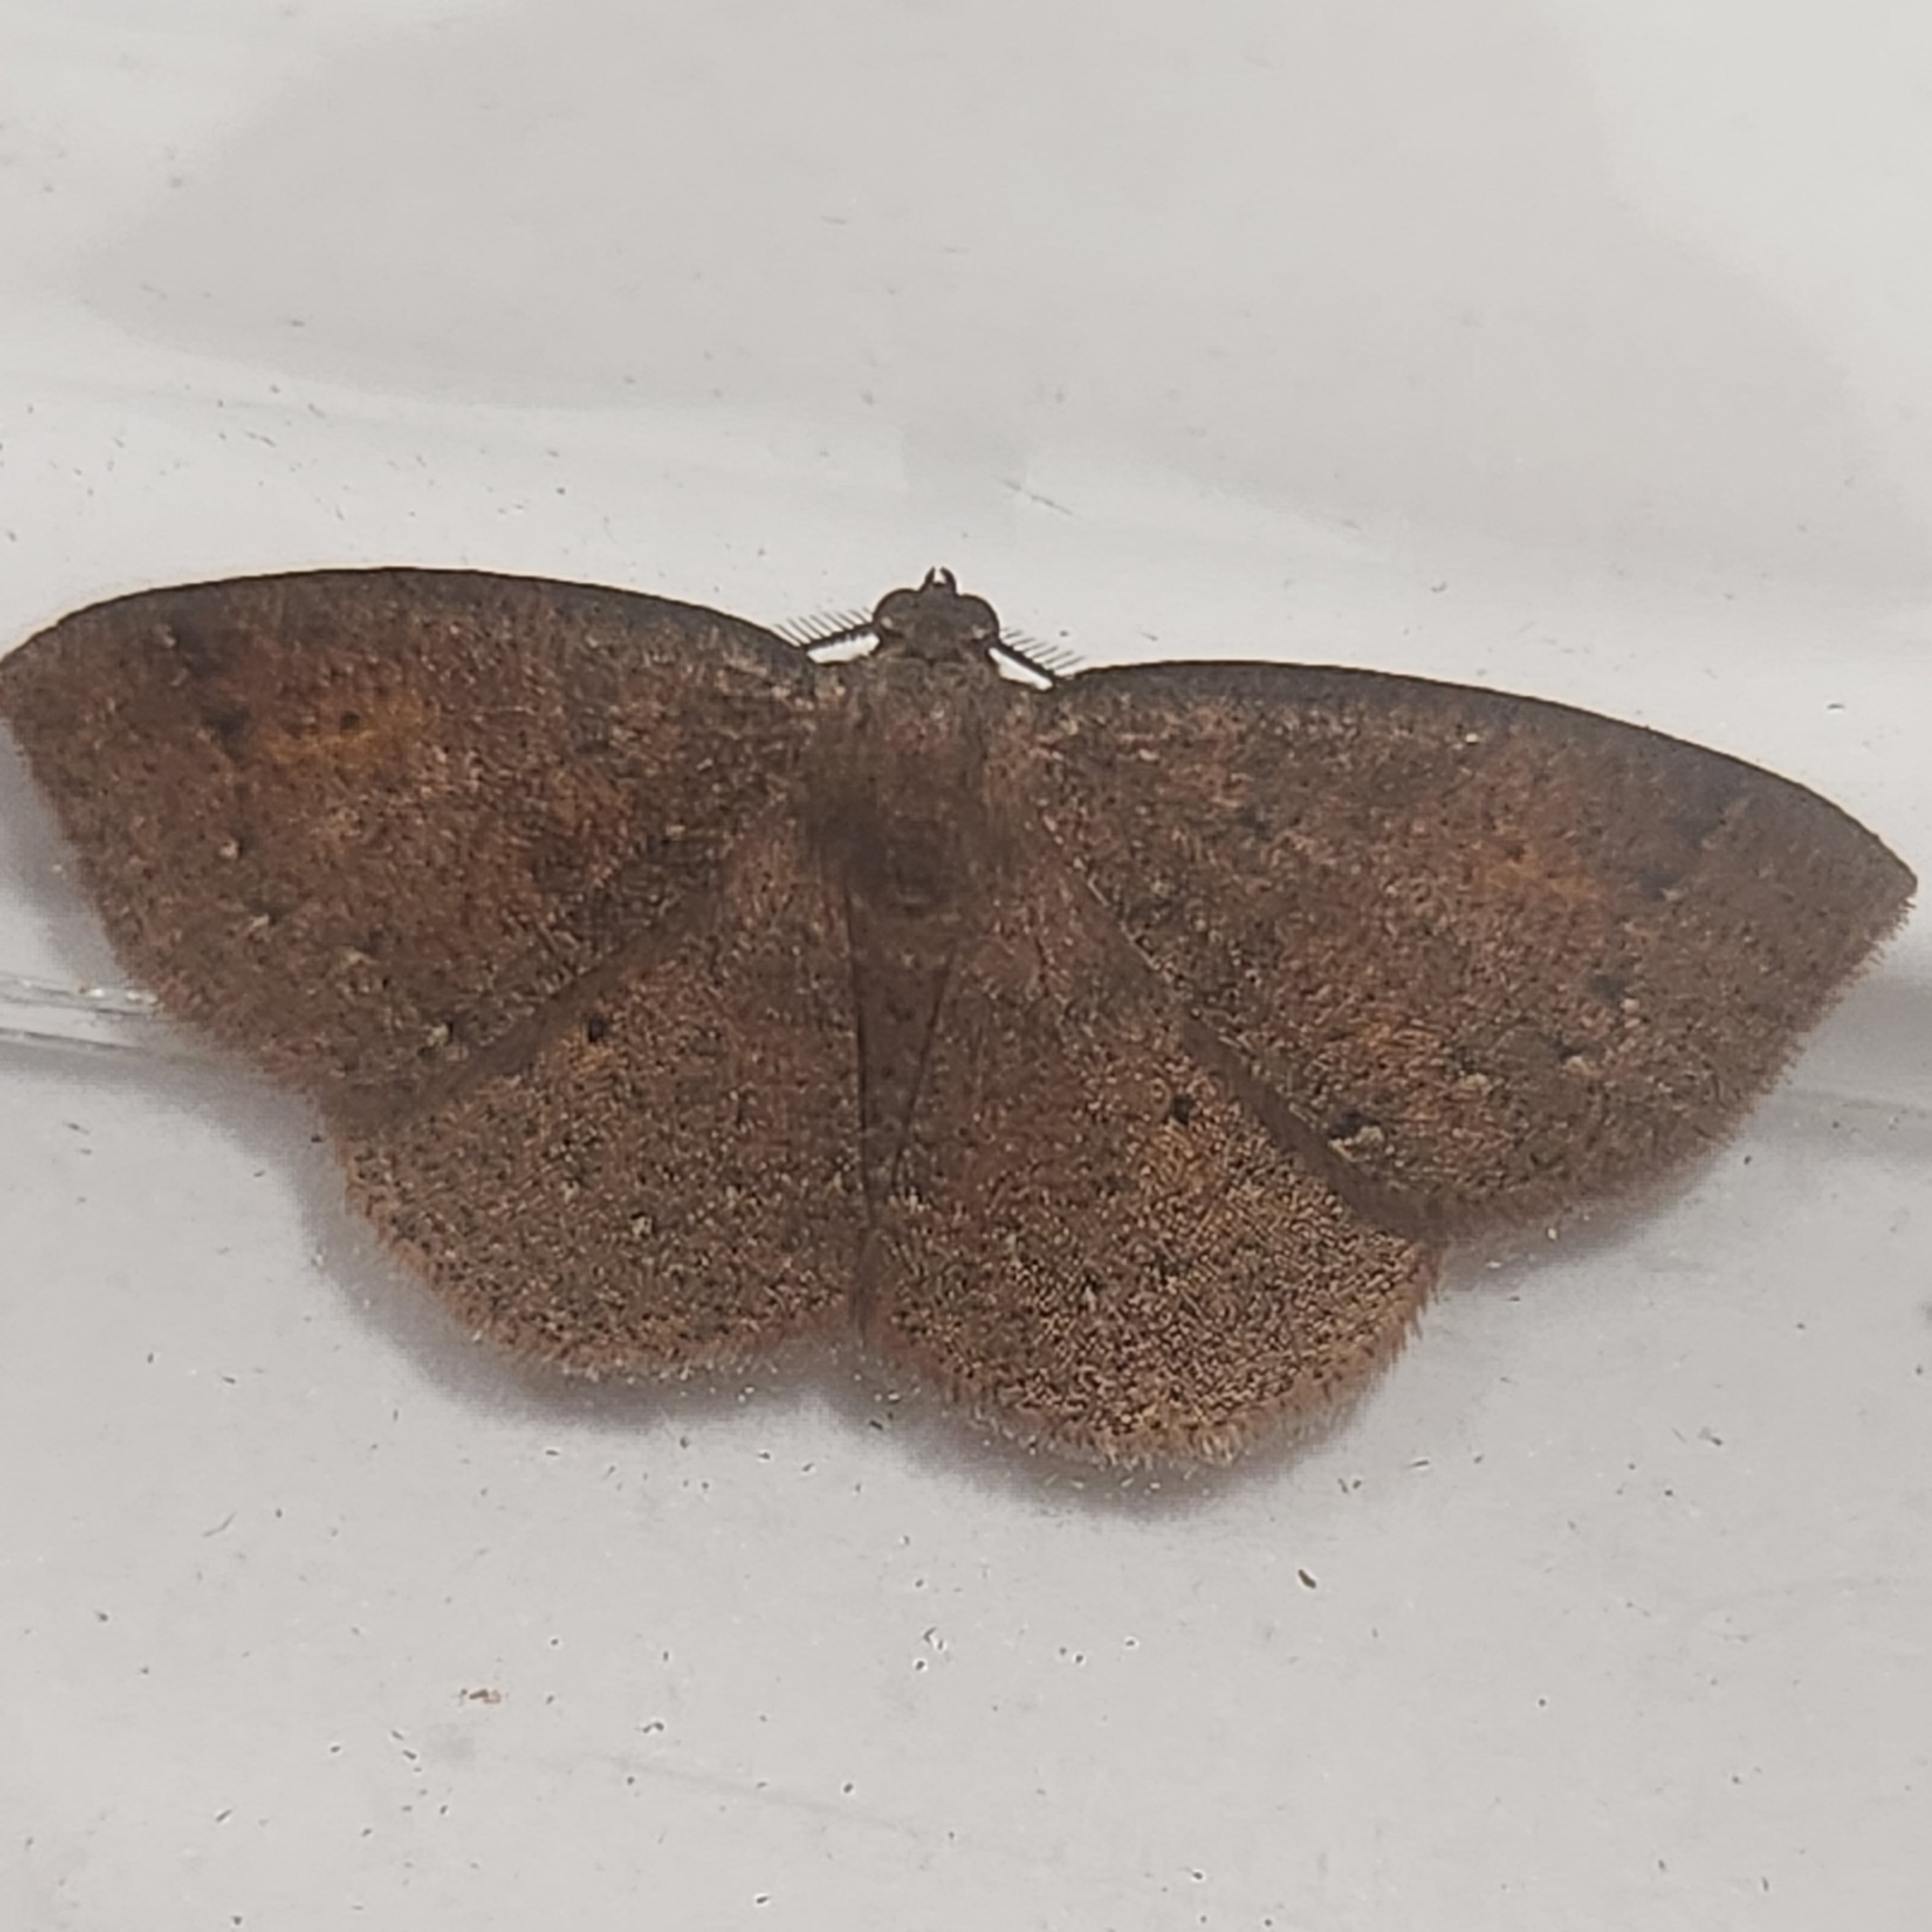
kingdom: Animalia
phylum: Arthropoda
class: Insecta
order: Lepidoptera
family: Geometridae
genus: Ilexia
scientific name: Ilexia intractata
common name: Black-dotted ruddy moth
